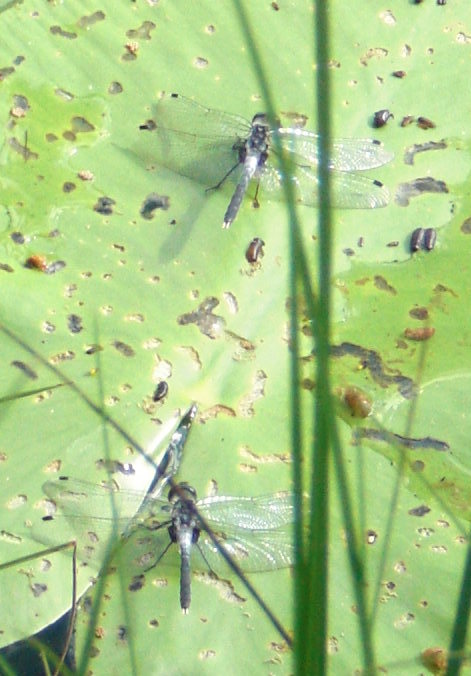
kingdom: Animalia
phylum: Arthropoda
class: Insecta
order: Odonata
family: Libellulidae
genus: Leucorrhinia
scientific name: Leucorrhinia albifrons
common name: Dark whiteface
